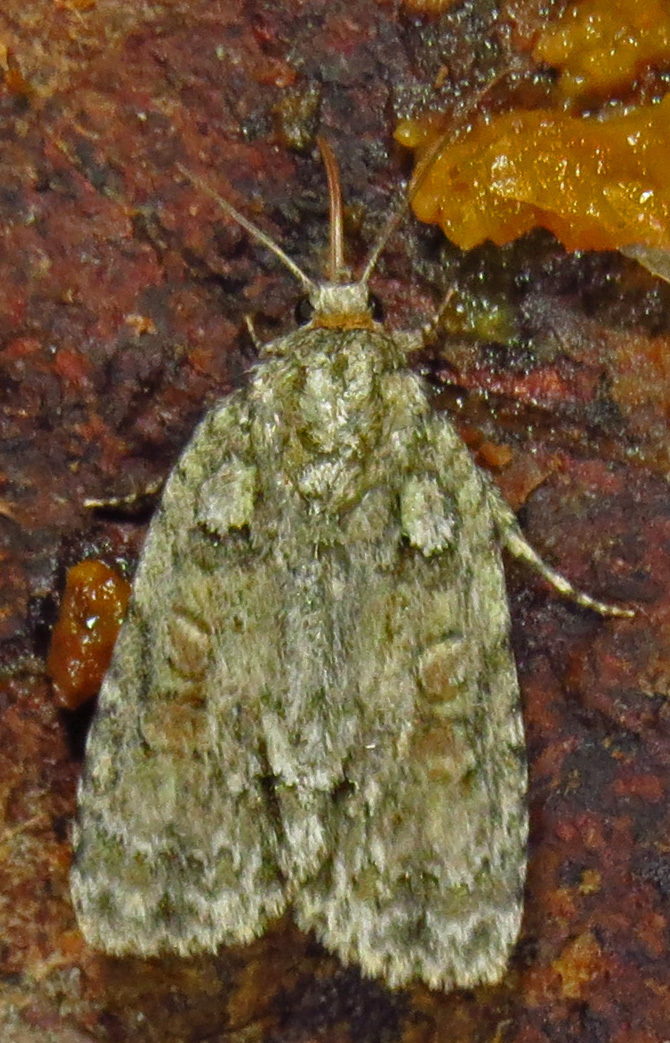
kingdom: Animalia
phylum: Arthropoda
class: Insecta
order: Lepidoptera
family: Noctuidae
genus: Acronicta
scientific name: Acronicta ovata
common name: Epauleted oak dagger
